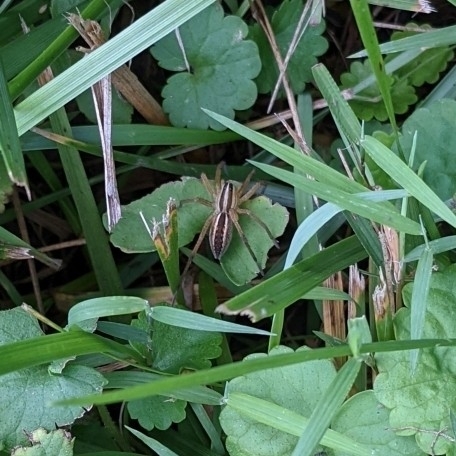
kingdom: Animalia
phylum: Arthropoda
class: Arachnida
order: Araneae
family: Lycosidae
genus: Rabidosa
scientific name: Rabidosa rabida
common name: Rabid wolf spider
